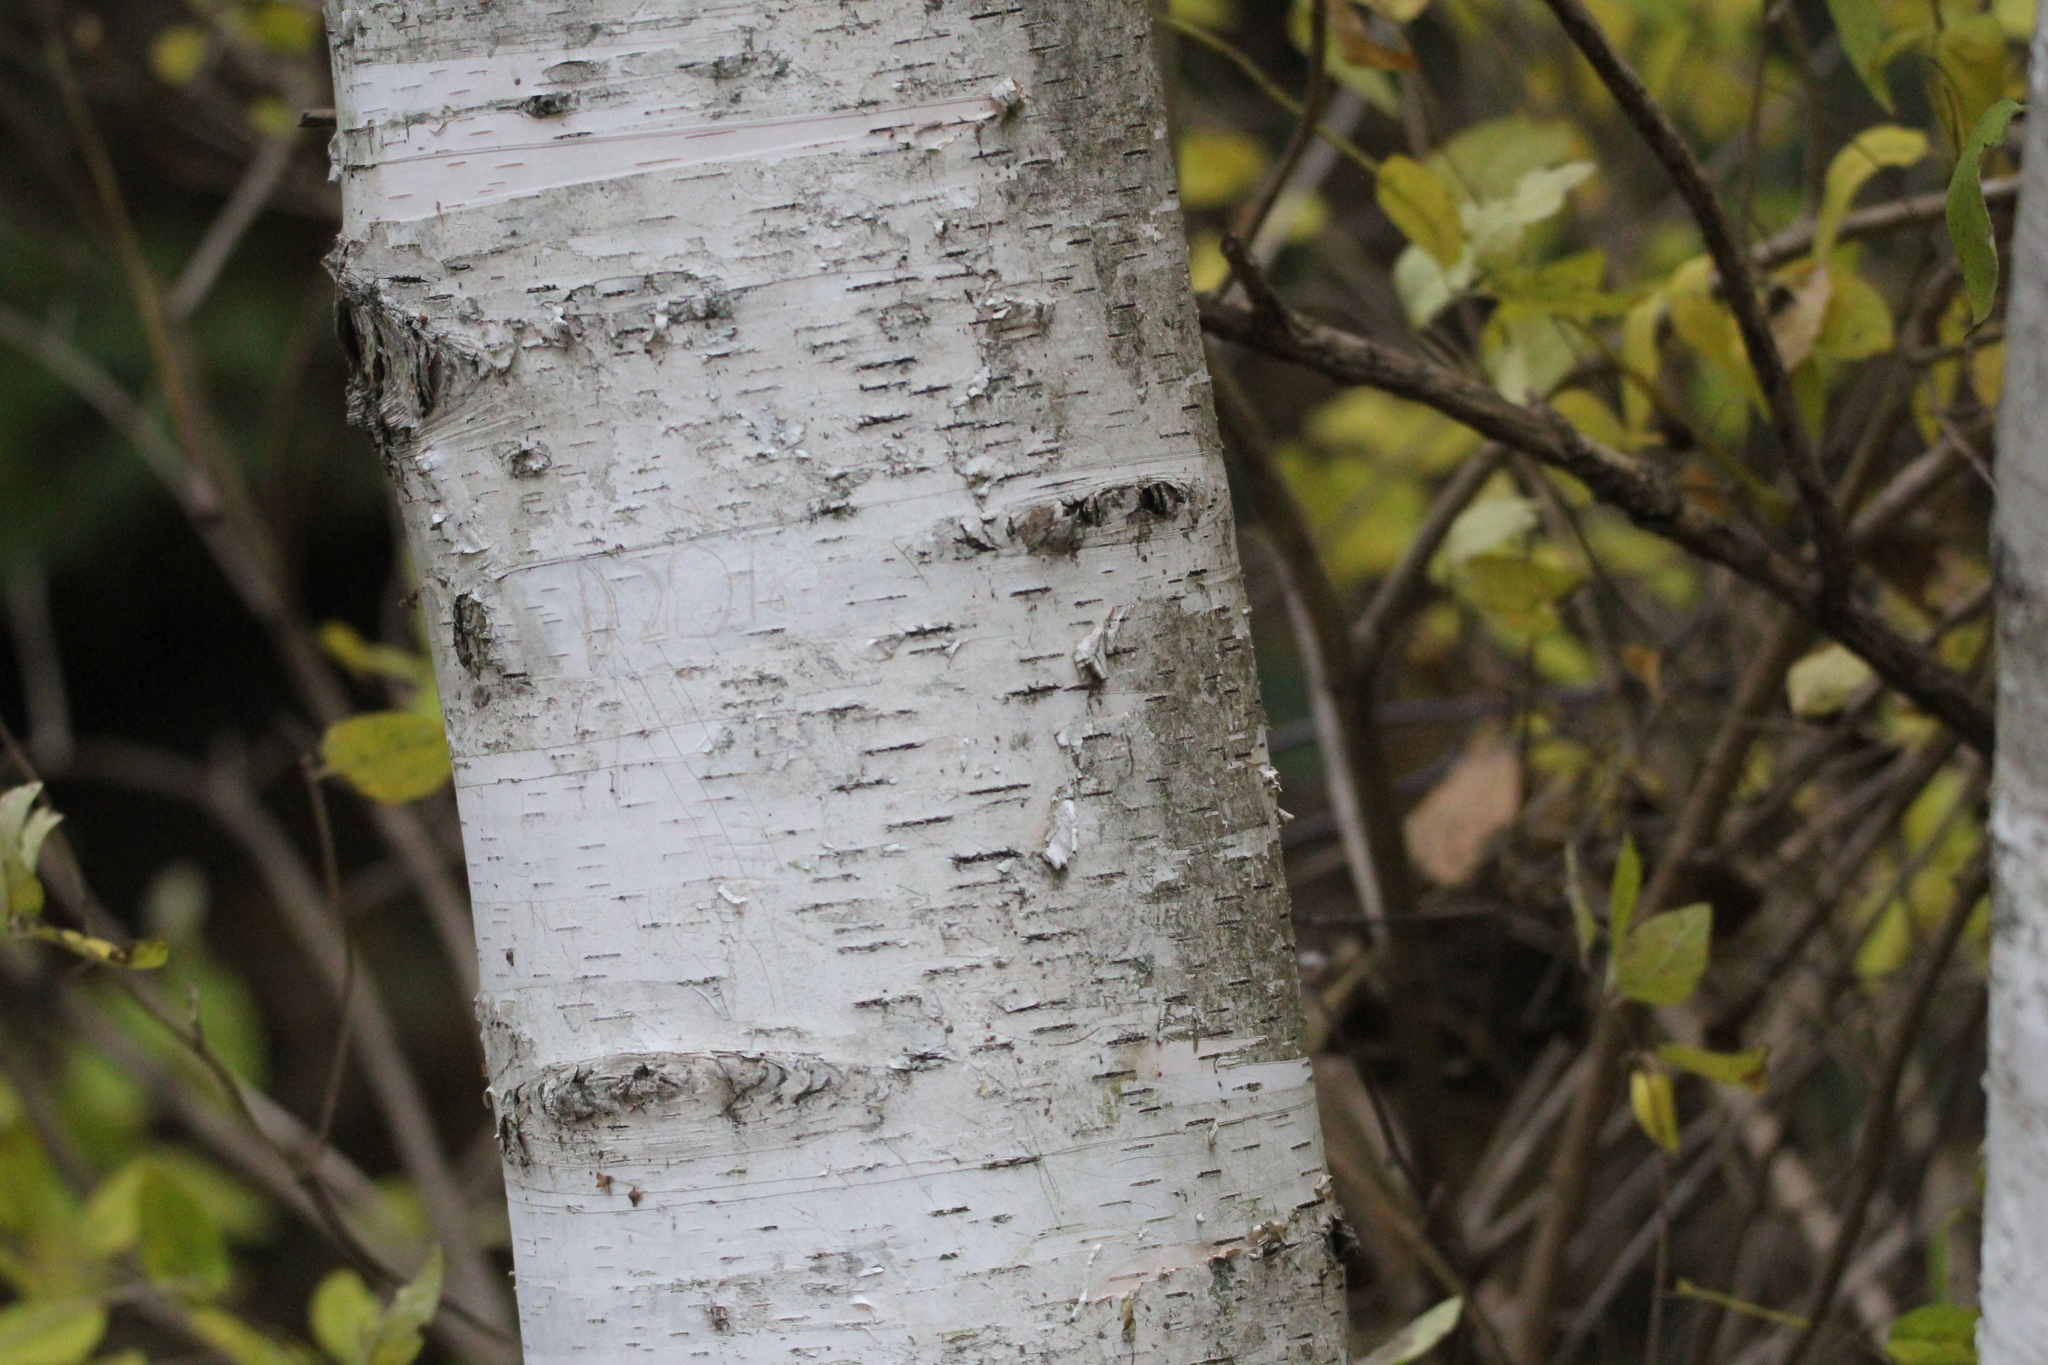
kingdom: Plantae
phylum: Tracheophyta
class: Magnoliopsida
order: Fagales
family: Betulaceae
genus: Betula
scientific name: Betula papyrifera
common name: Paper birch
